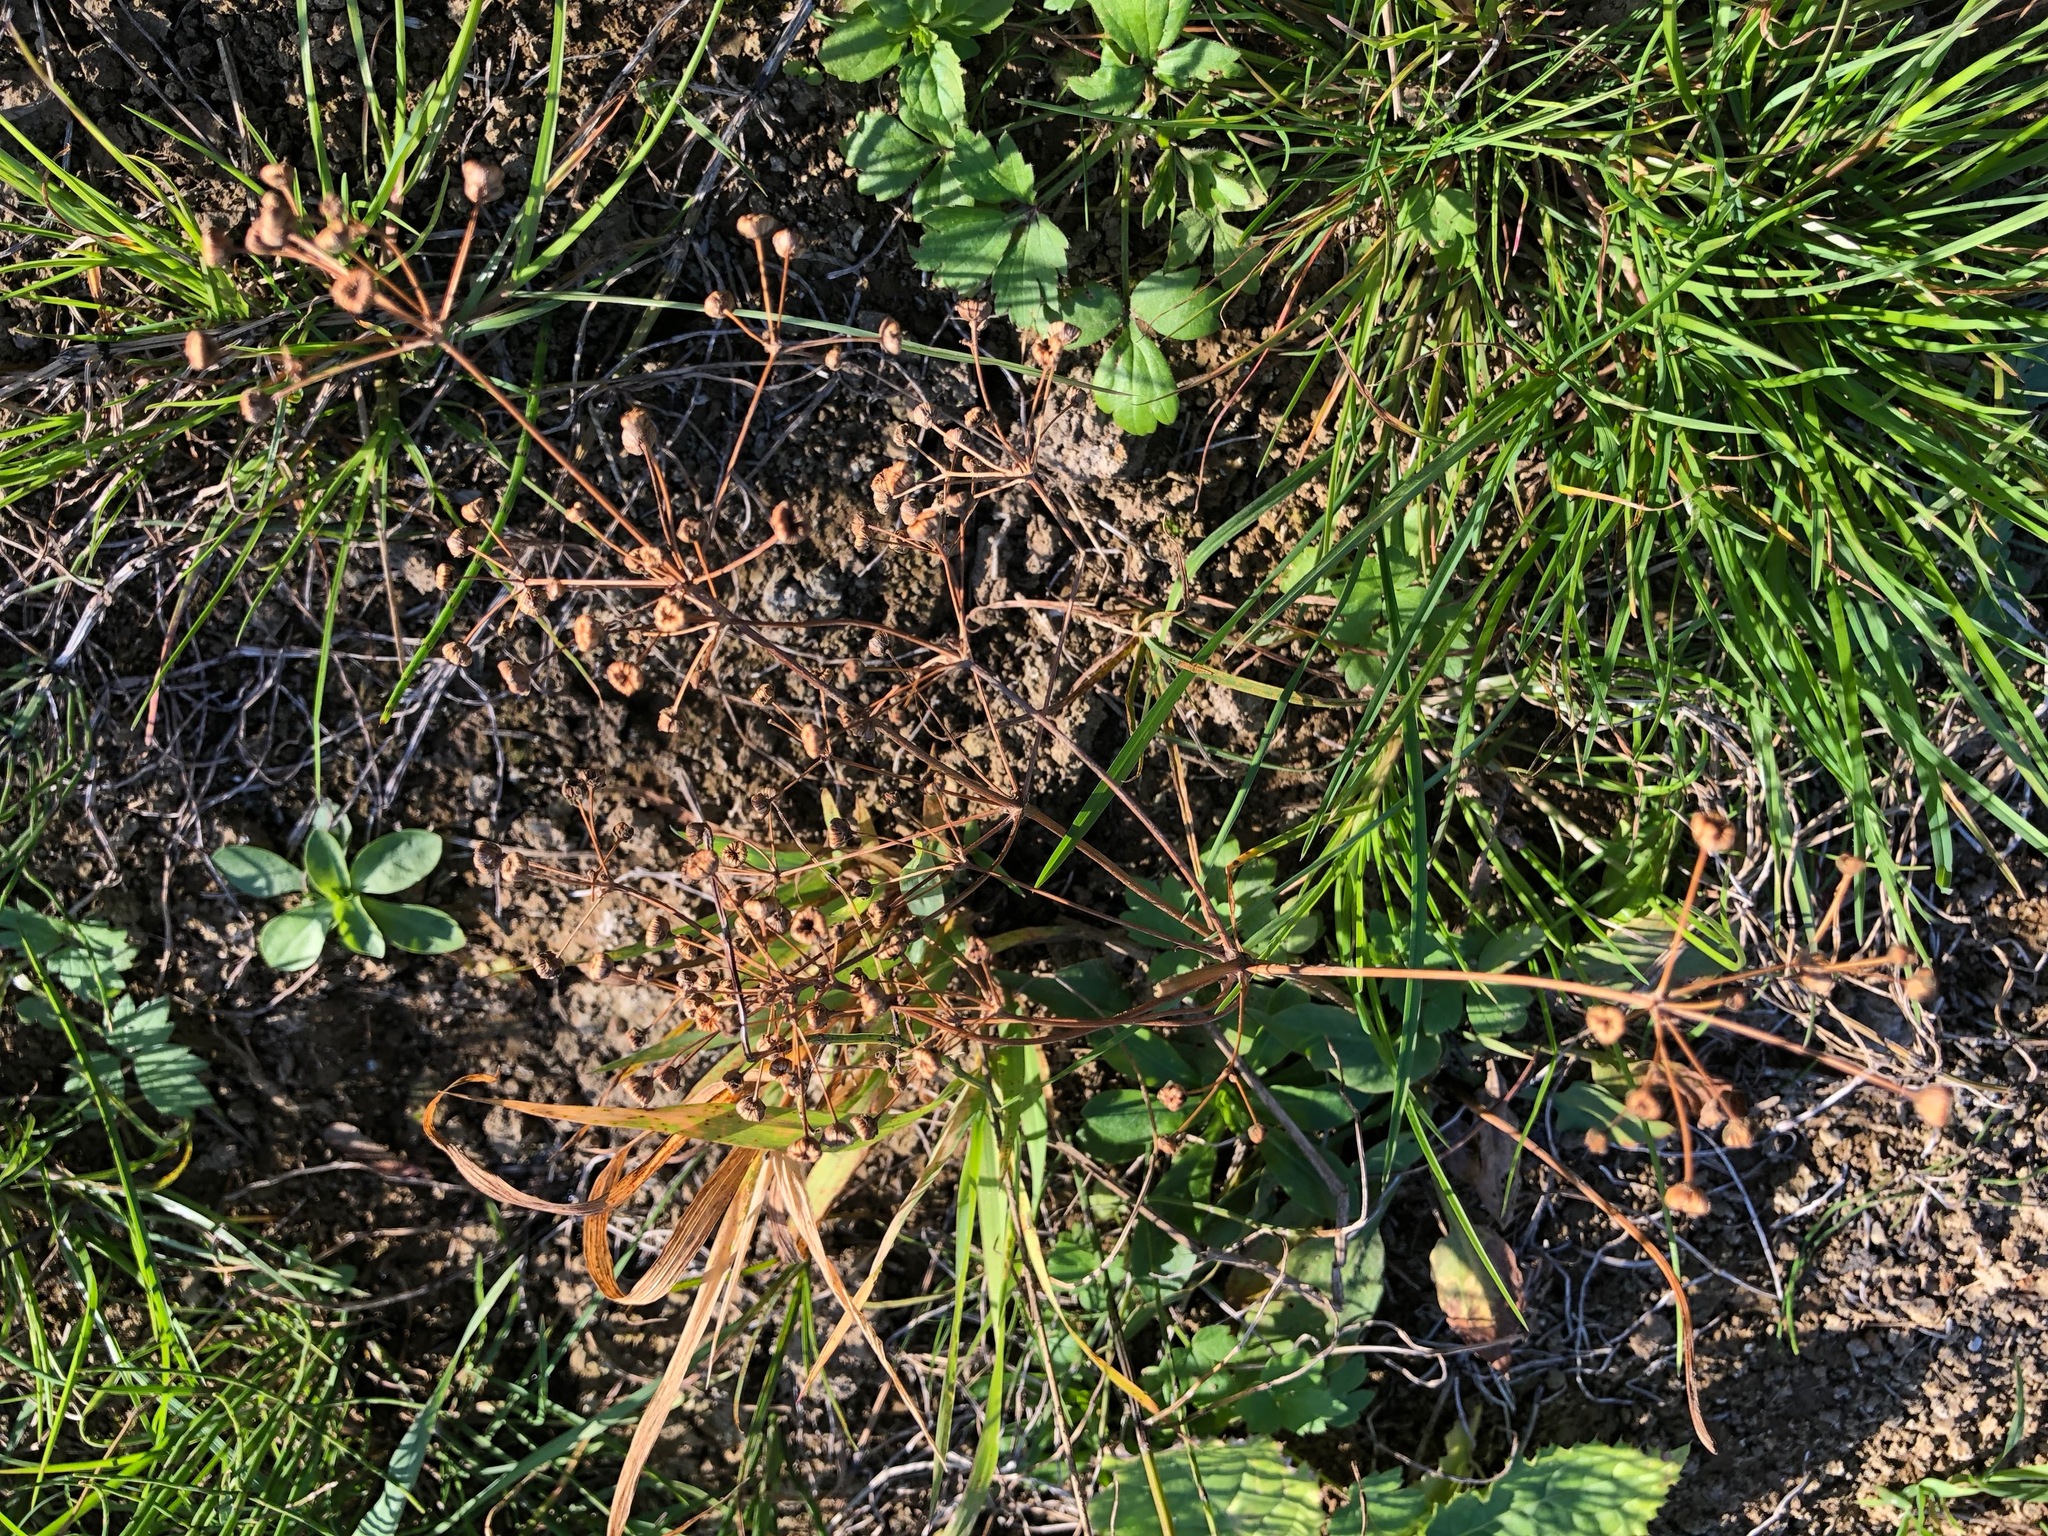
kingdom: Plantae
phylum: Tracheophyta
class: Liliopsida
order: Alismatales
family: Alismataceae
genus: Alisma
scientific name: Alisma plantago-aquatica
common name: Water-plantain
